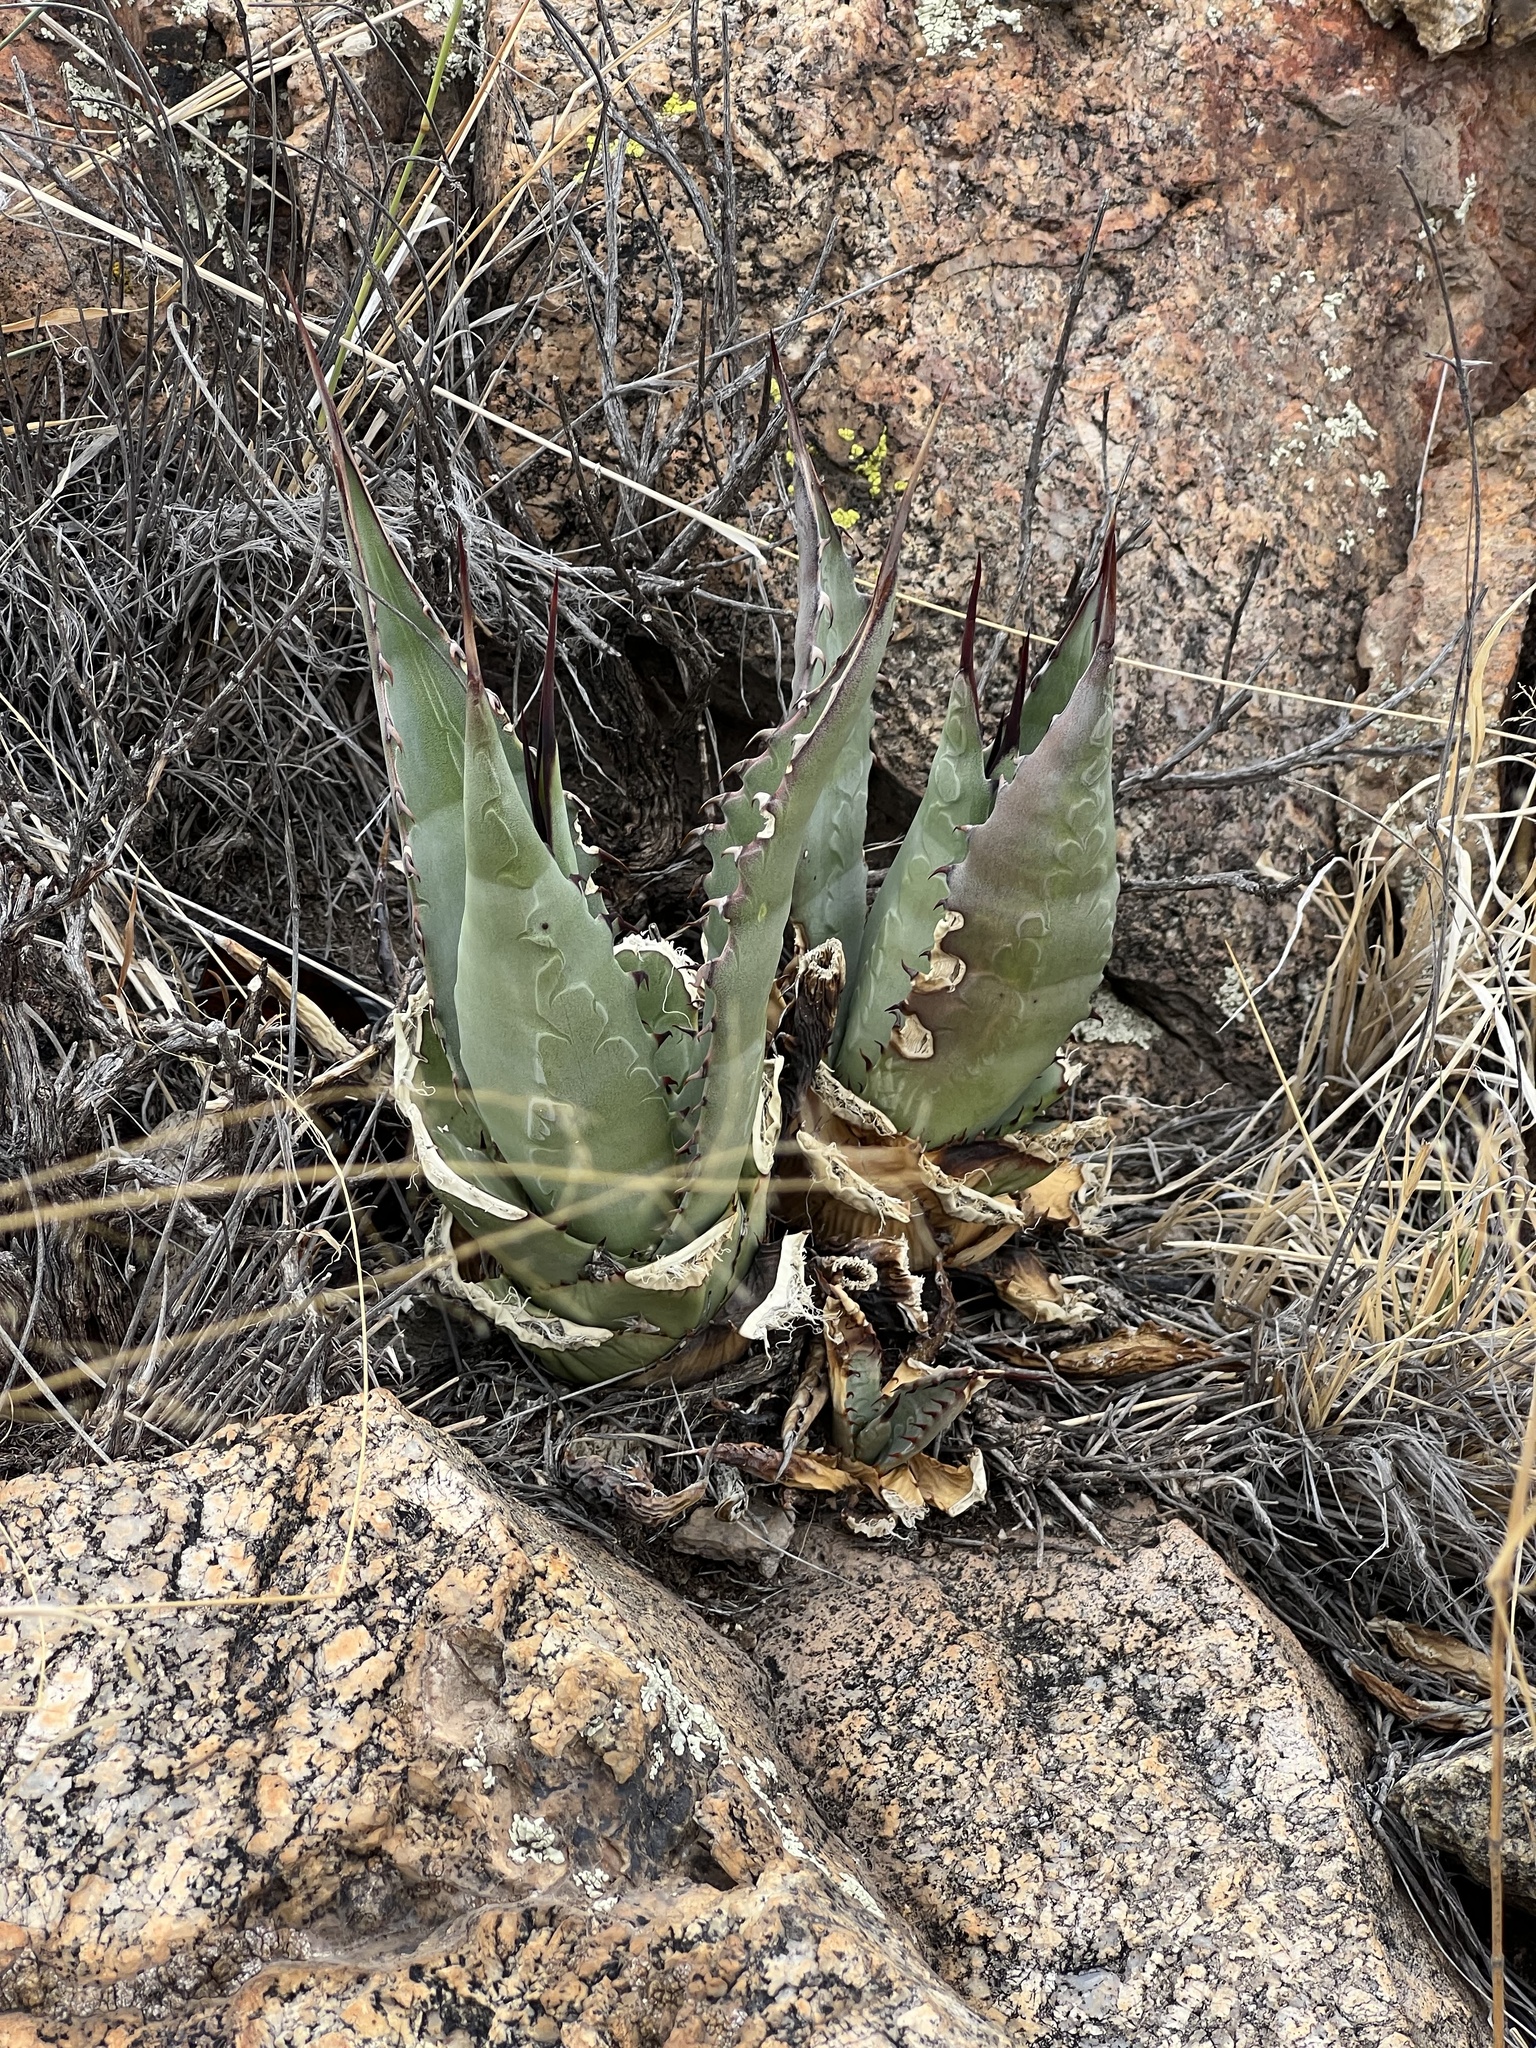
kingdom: Plantae
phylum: Tracheophyta
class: Liliopsida
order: Asparagales
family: Asparagaceae
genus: Agave
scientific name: Agave palmeri
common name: Palmer agave
